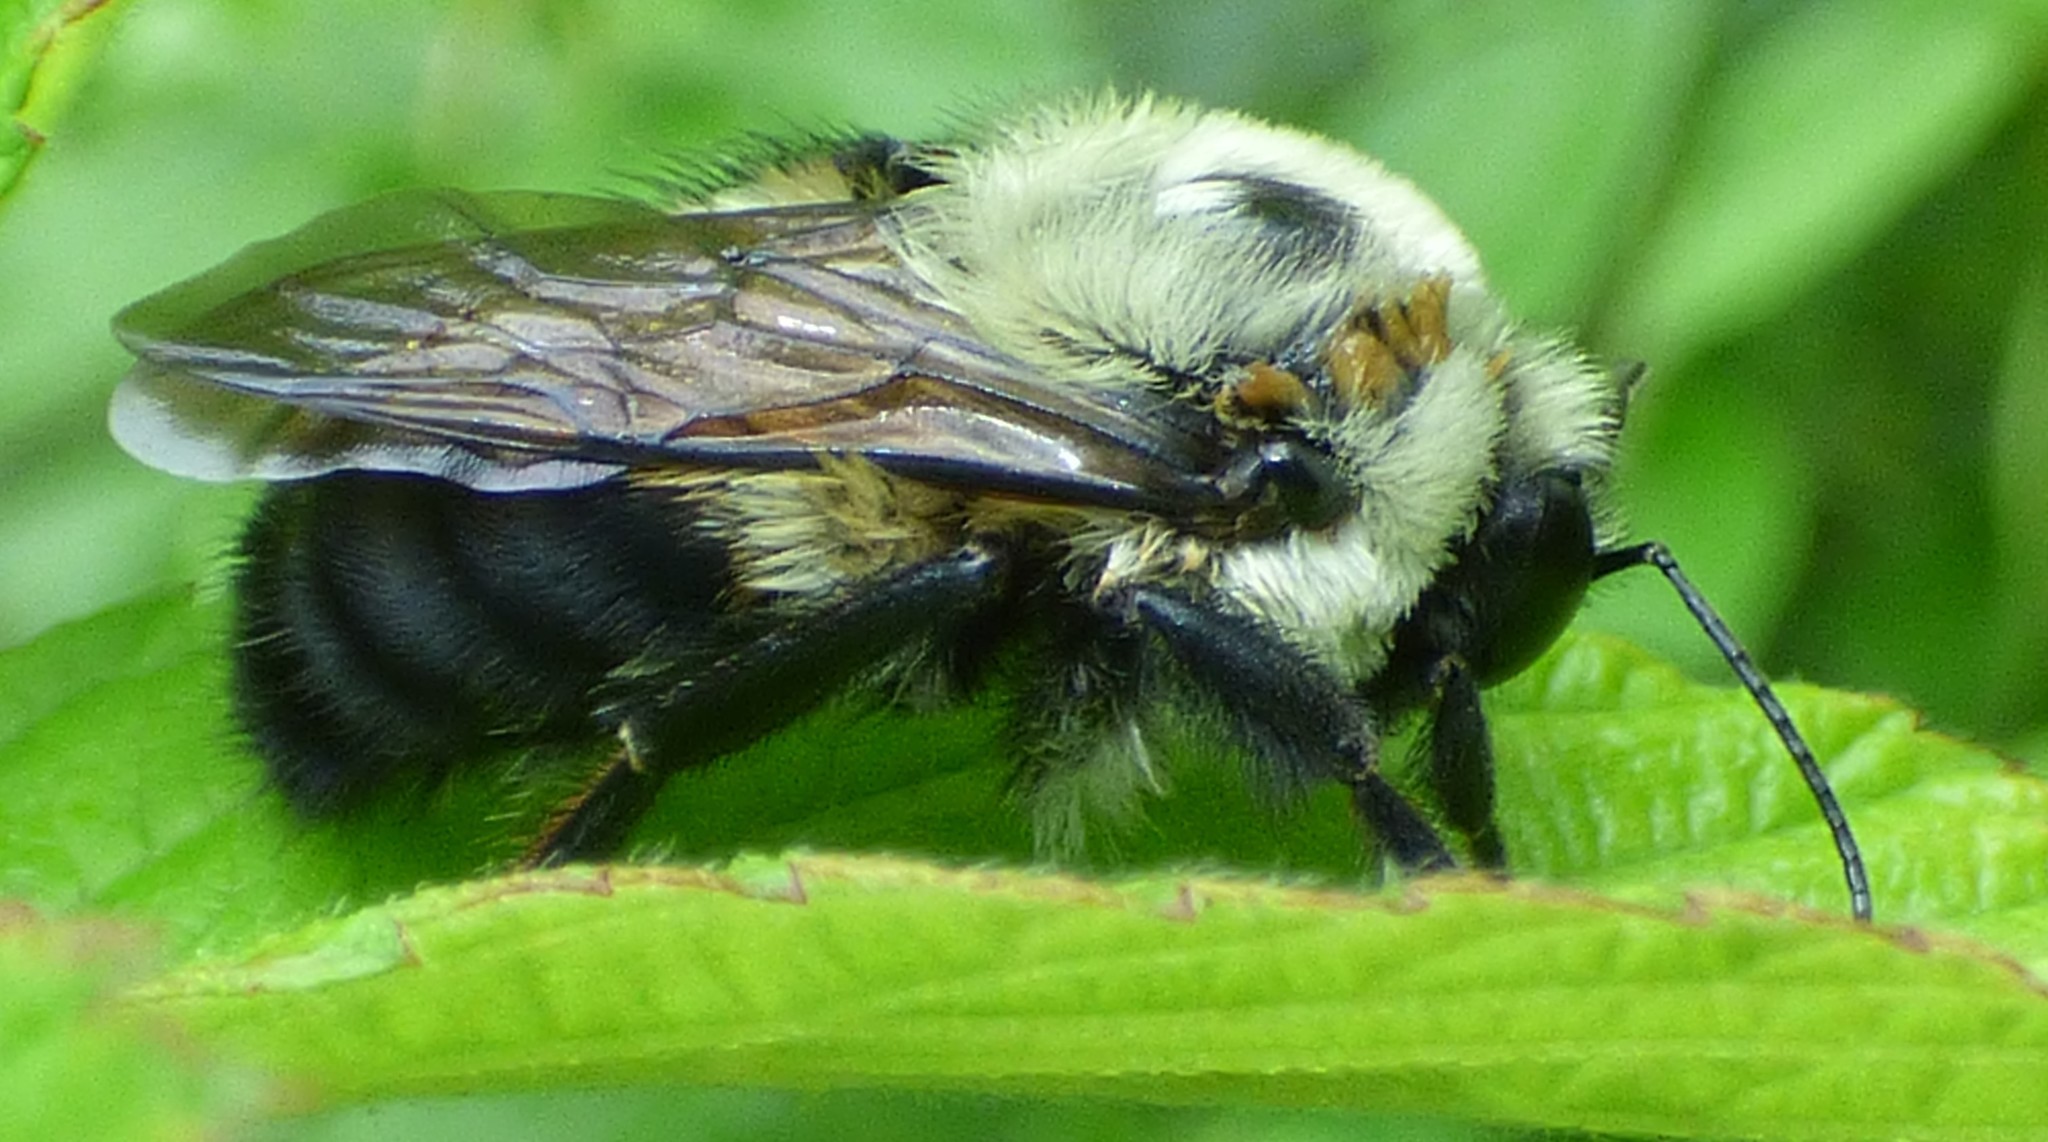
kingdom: Animalia
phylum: Arthropoda
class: Insecta
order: Hymenoptera
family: Apidae
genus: Bombus
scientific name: Bombus griseocollis
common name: Brown-belted bumble bee
